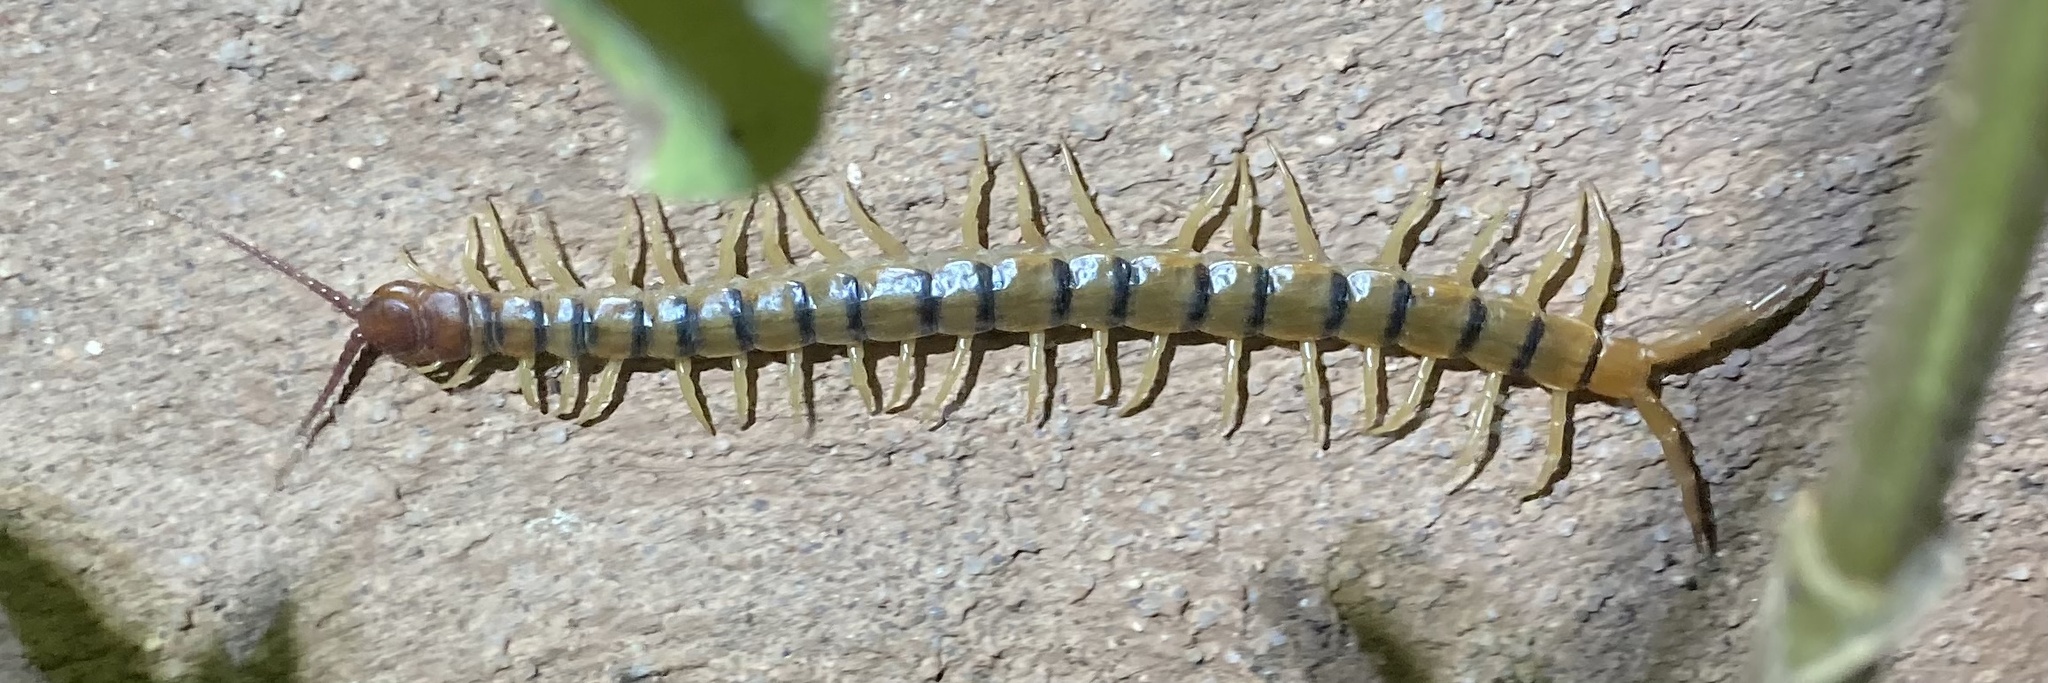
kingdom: Animalia
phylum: Arthropoda
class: Chilopoda
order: Scolopendromorpha
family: Scolopendridae
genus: Scolopendra
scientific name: Scolopendra polymorpha
